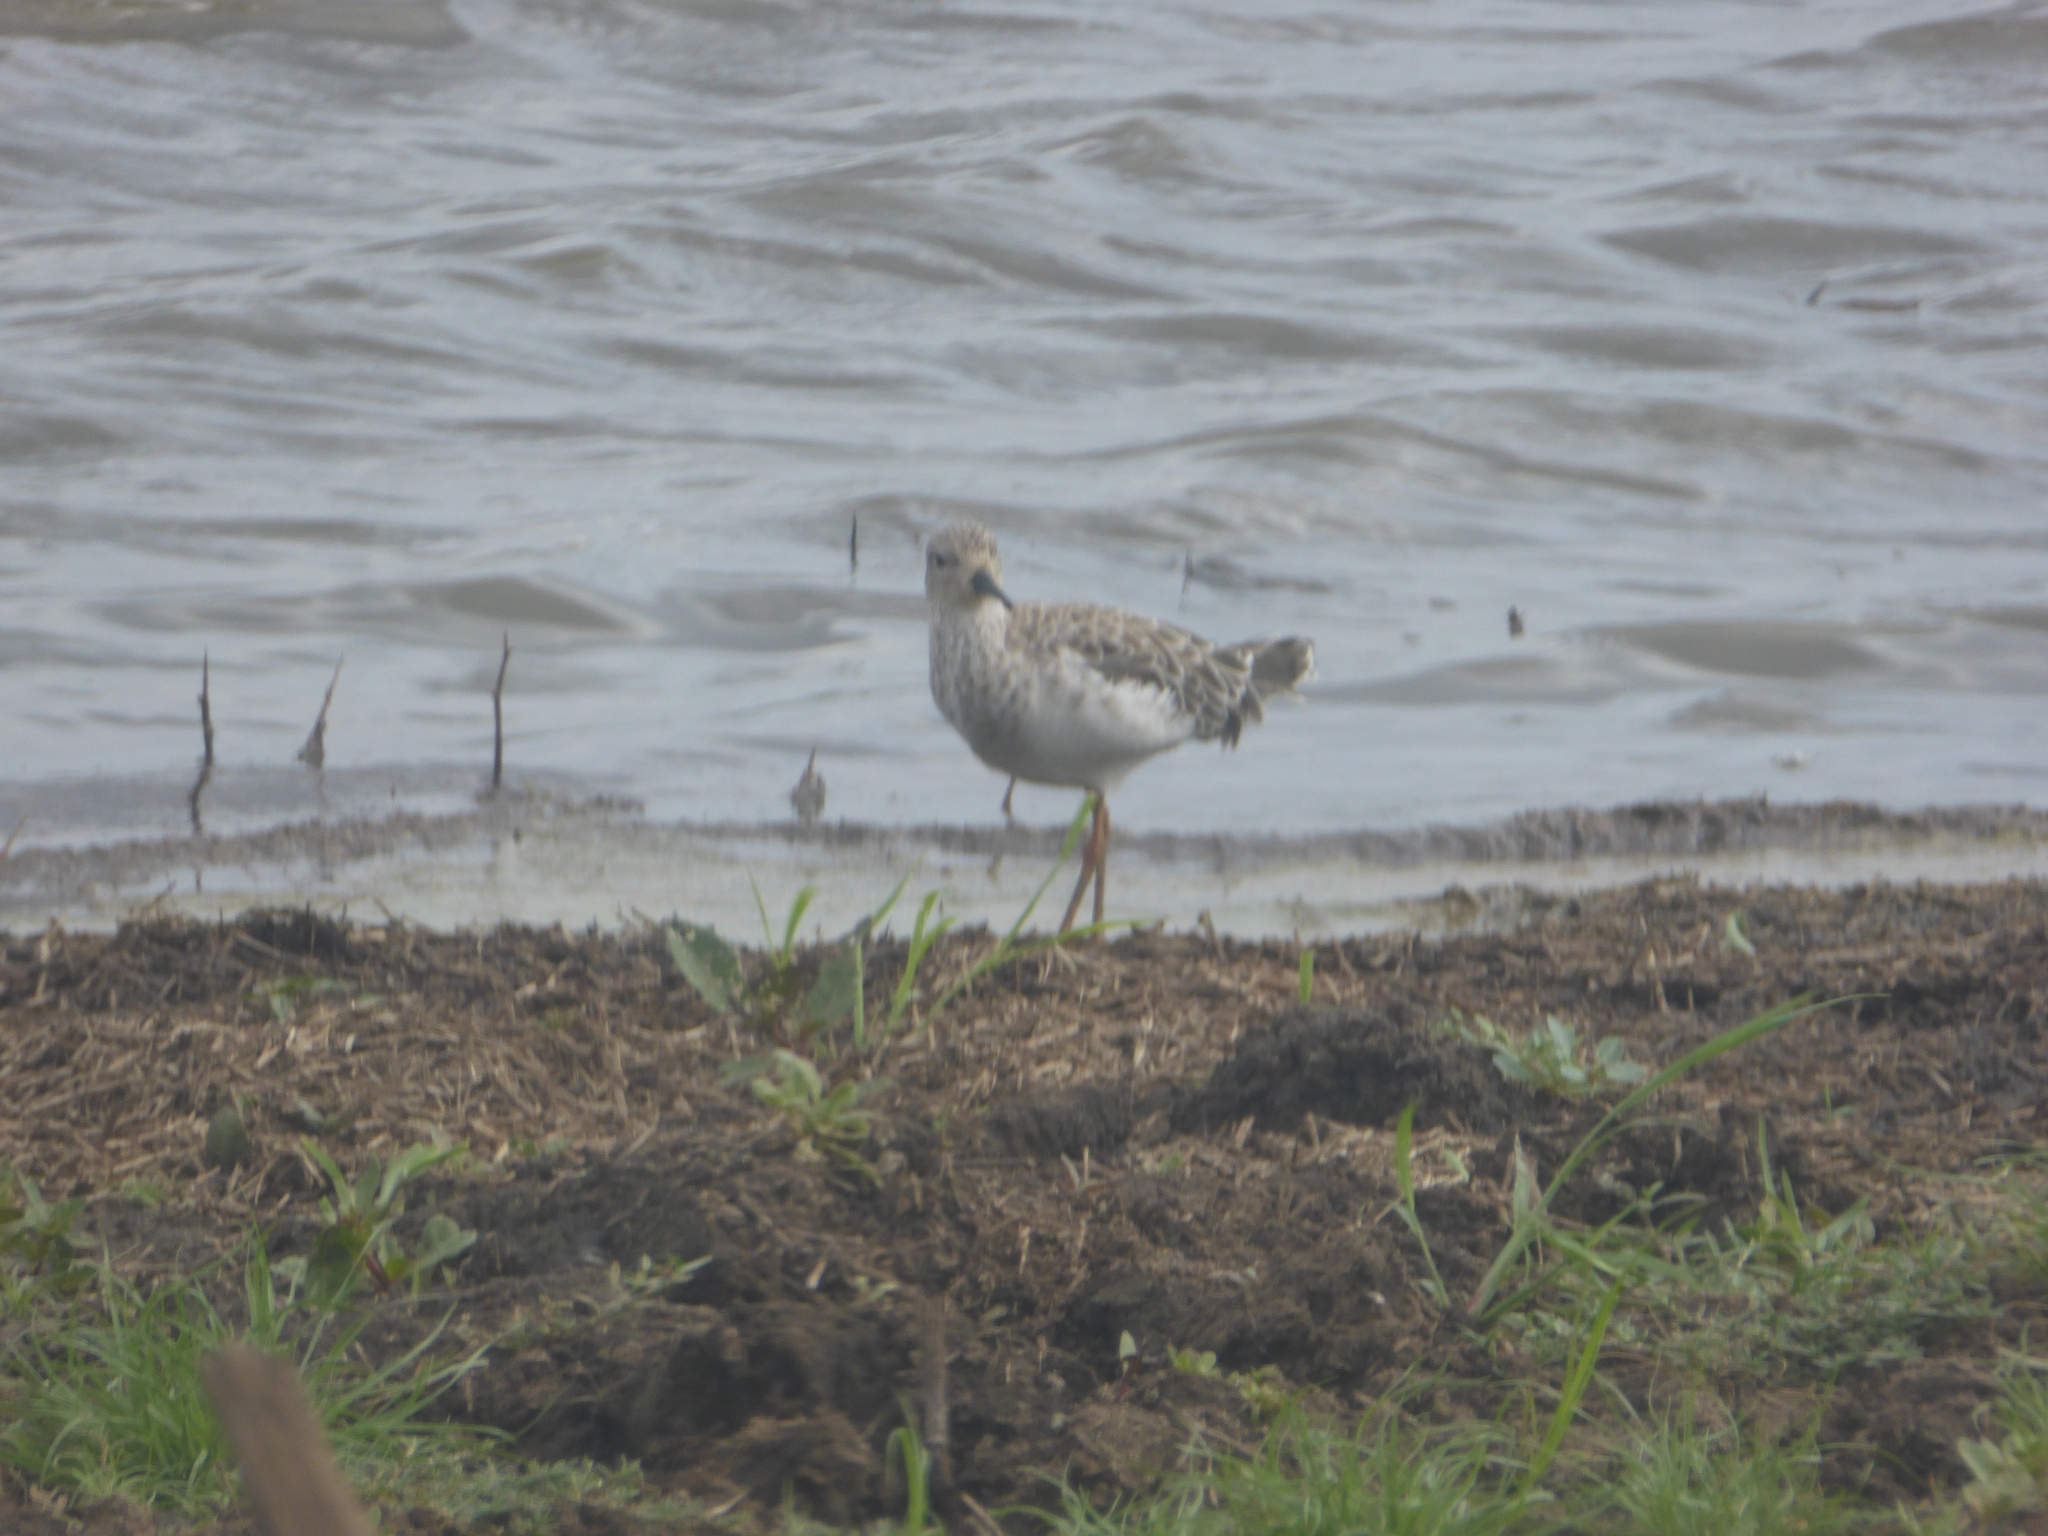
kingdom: Animalia
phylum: Chordata
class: Aves
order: Charadriiformes
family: Scolopacidae
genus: Calidris
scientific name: Calidris pugnax
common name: Ruff
